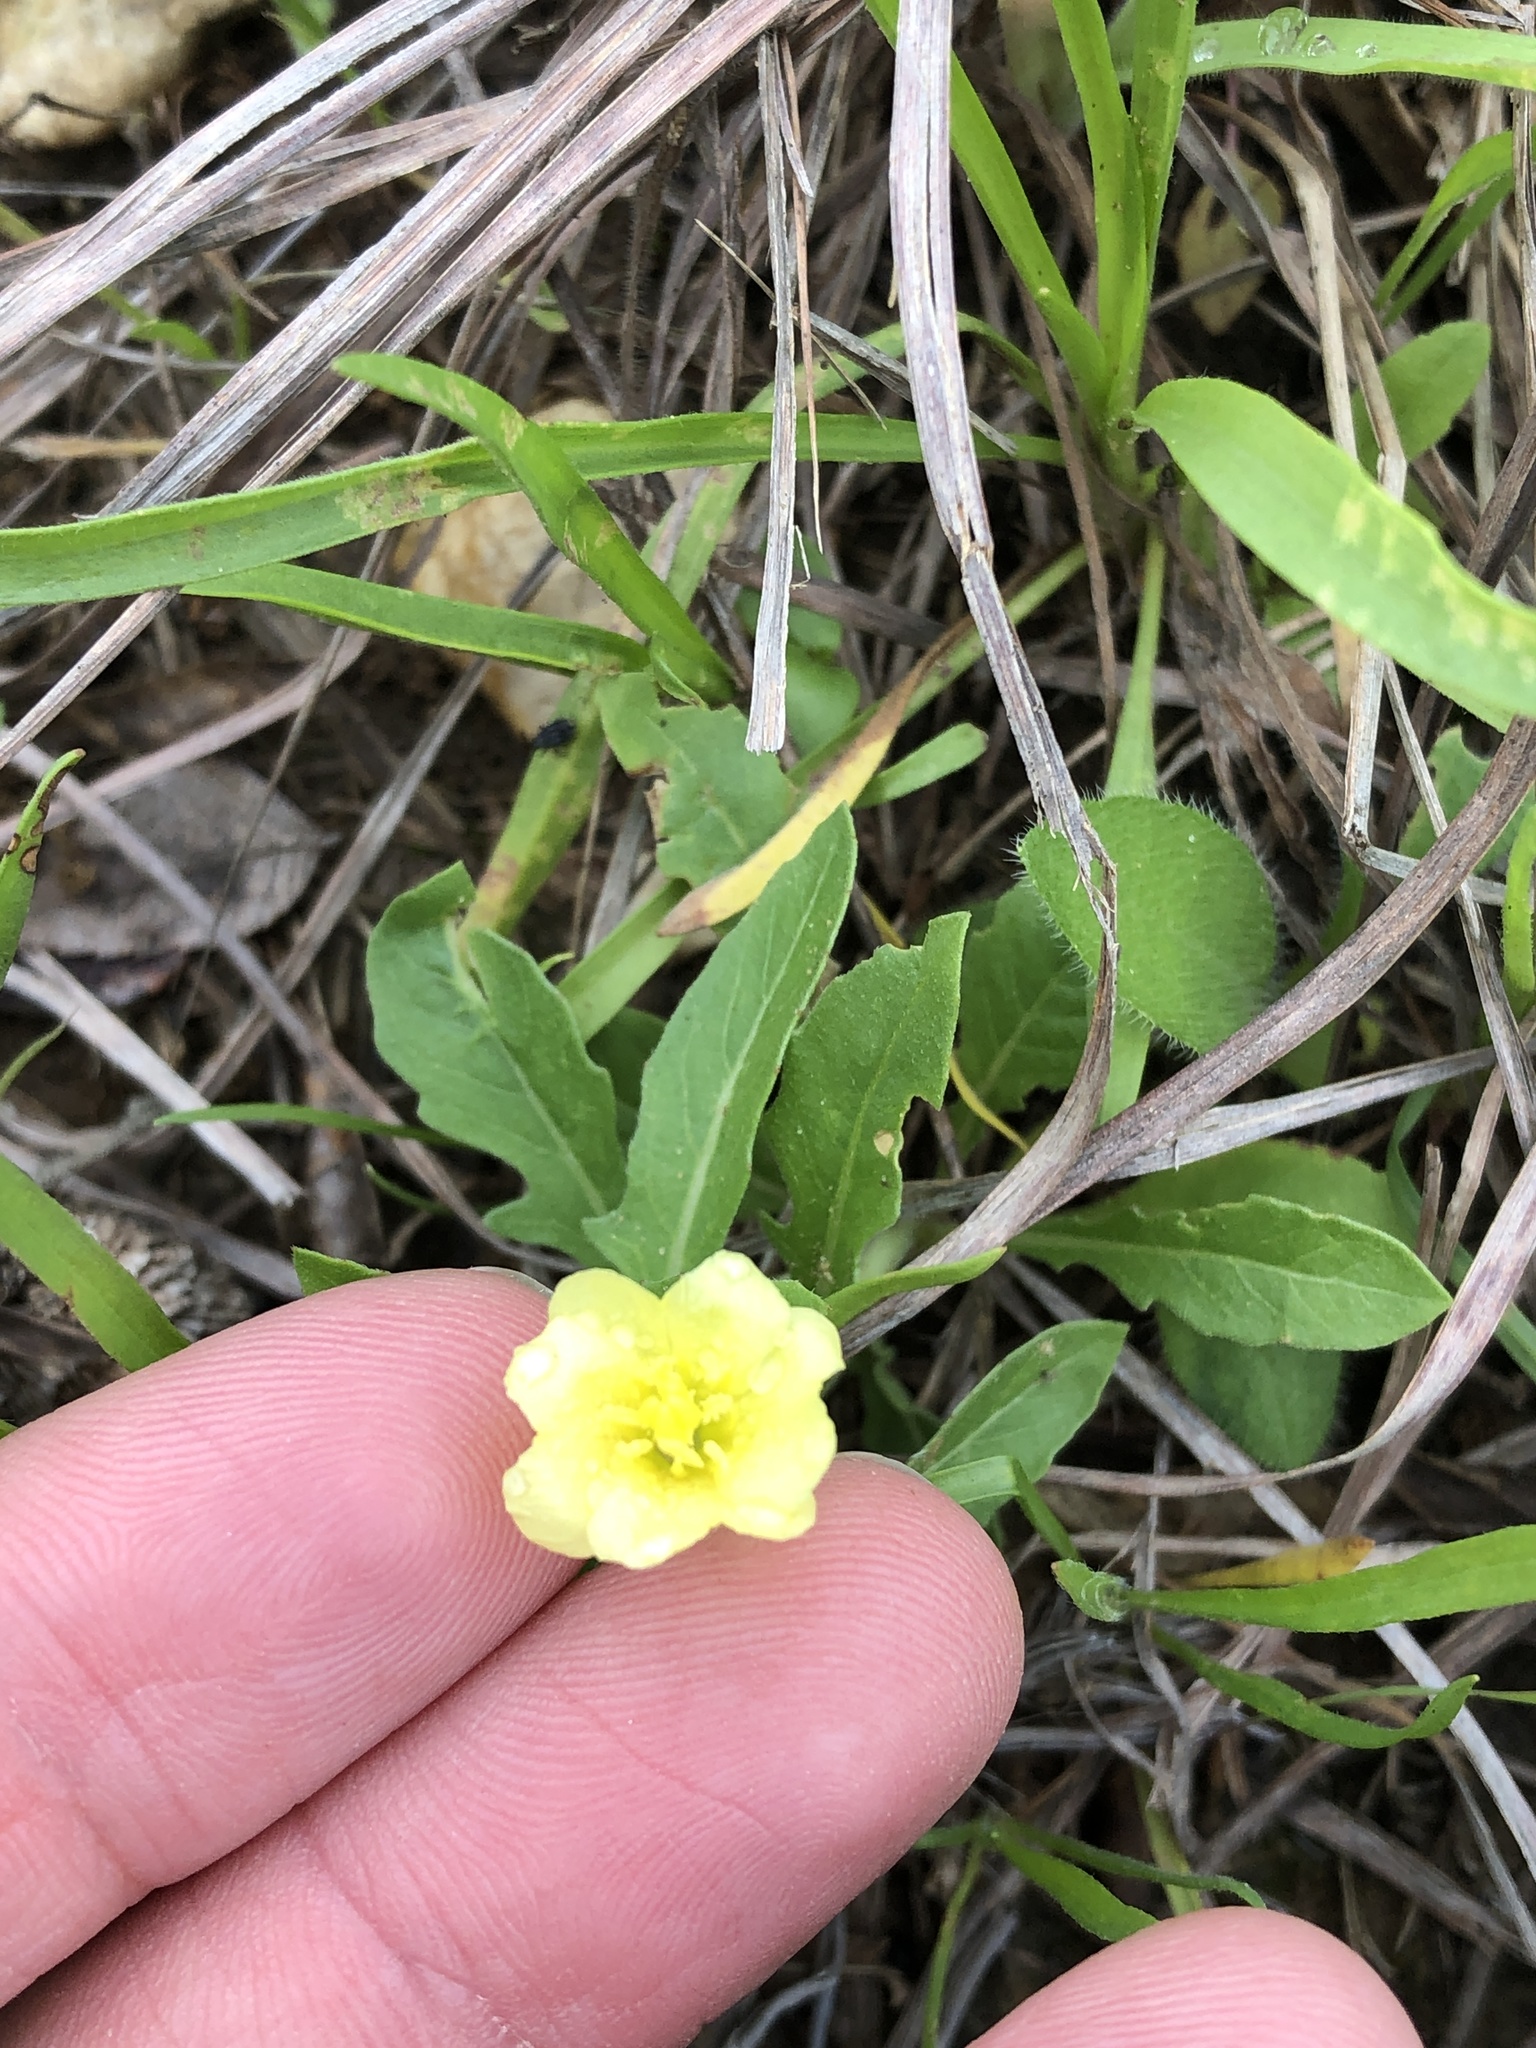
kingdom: Plantae
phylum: Tracheophyta
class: Magnoliopsida
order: Myrtales
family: Onagraceae
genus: Oenothera
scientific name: Oenothera laciniata
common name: Cut-leaved evening-primrose
